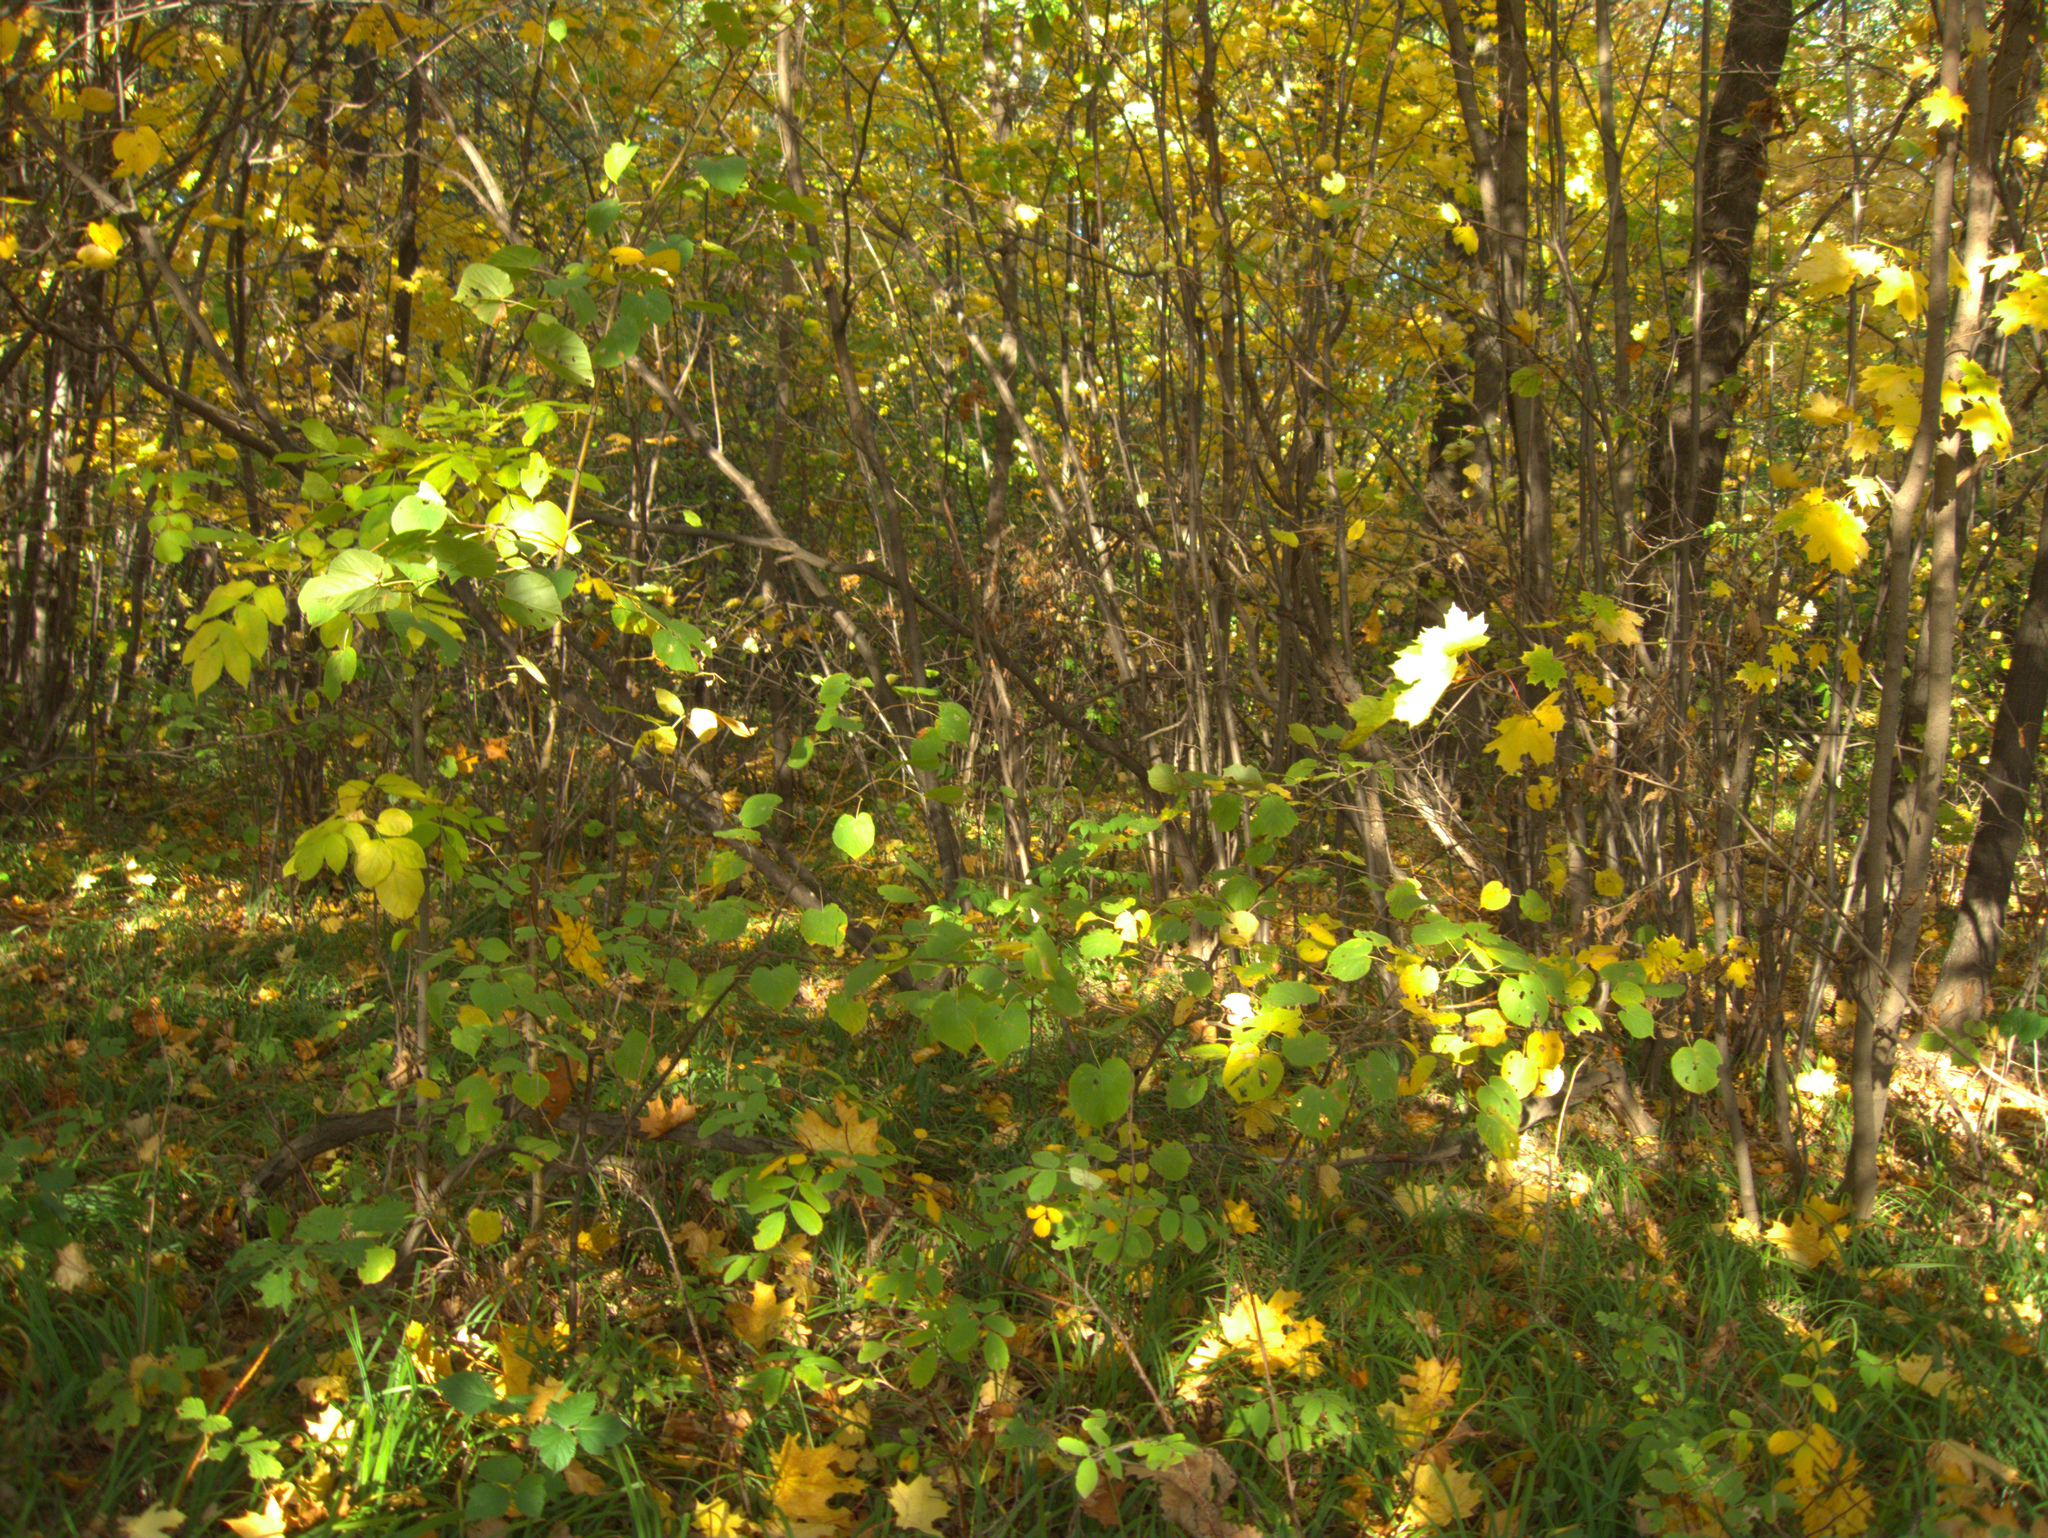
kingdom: Plantae
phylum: Tracheophyta
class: Magnoliopsida
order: Malvales
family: Malvaceae
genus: Tilia
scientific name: Tilia cordata
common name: Small-leaved lime
